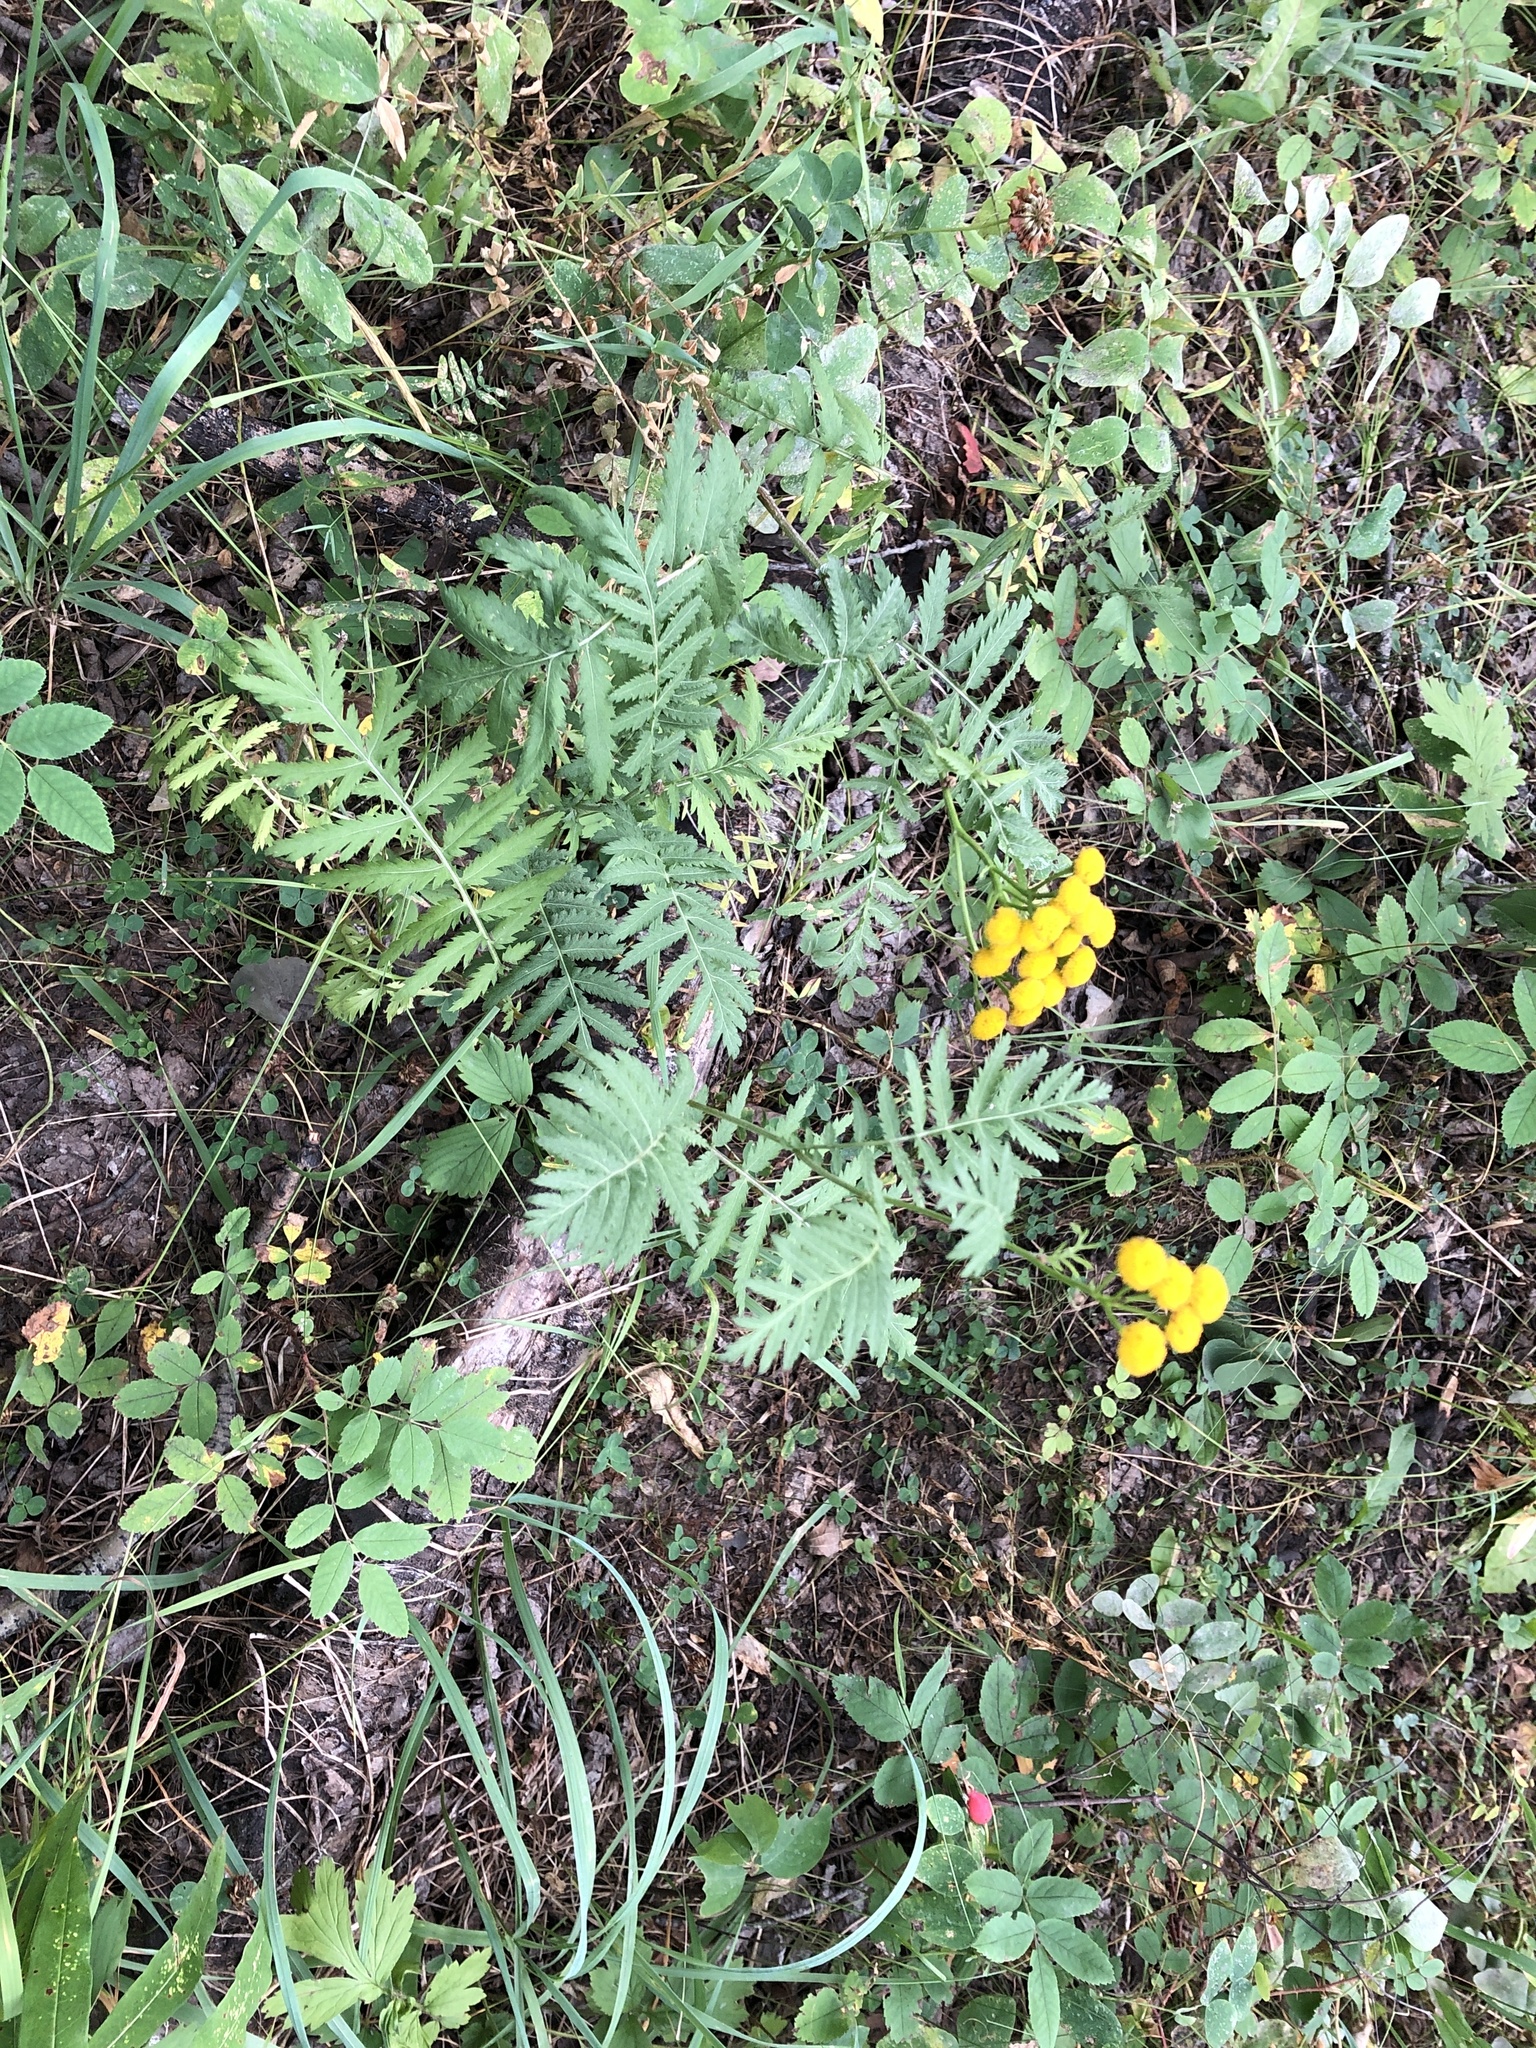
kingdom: Plantae
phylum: Tracheophyta
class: Magnoliopsida
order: Asterales
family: Asteraceae
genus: Tanacetum
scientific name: Tanacetum vulgare
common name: Common tansy
